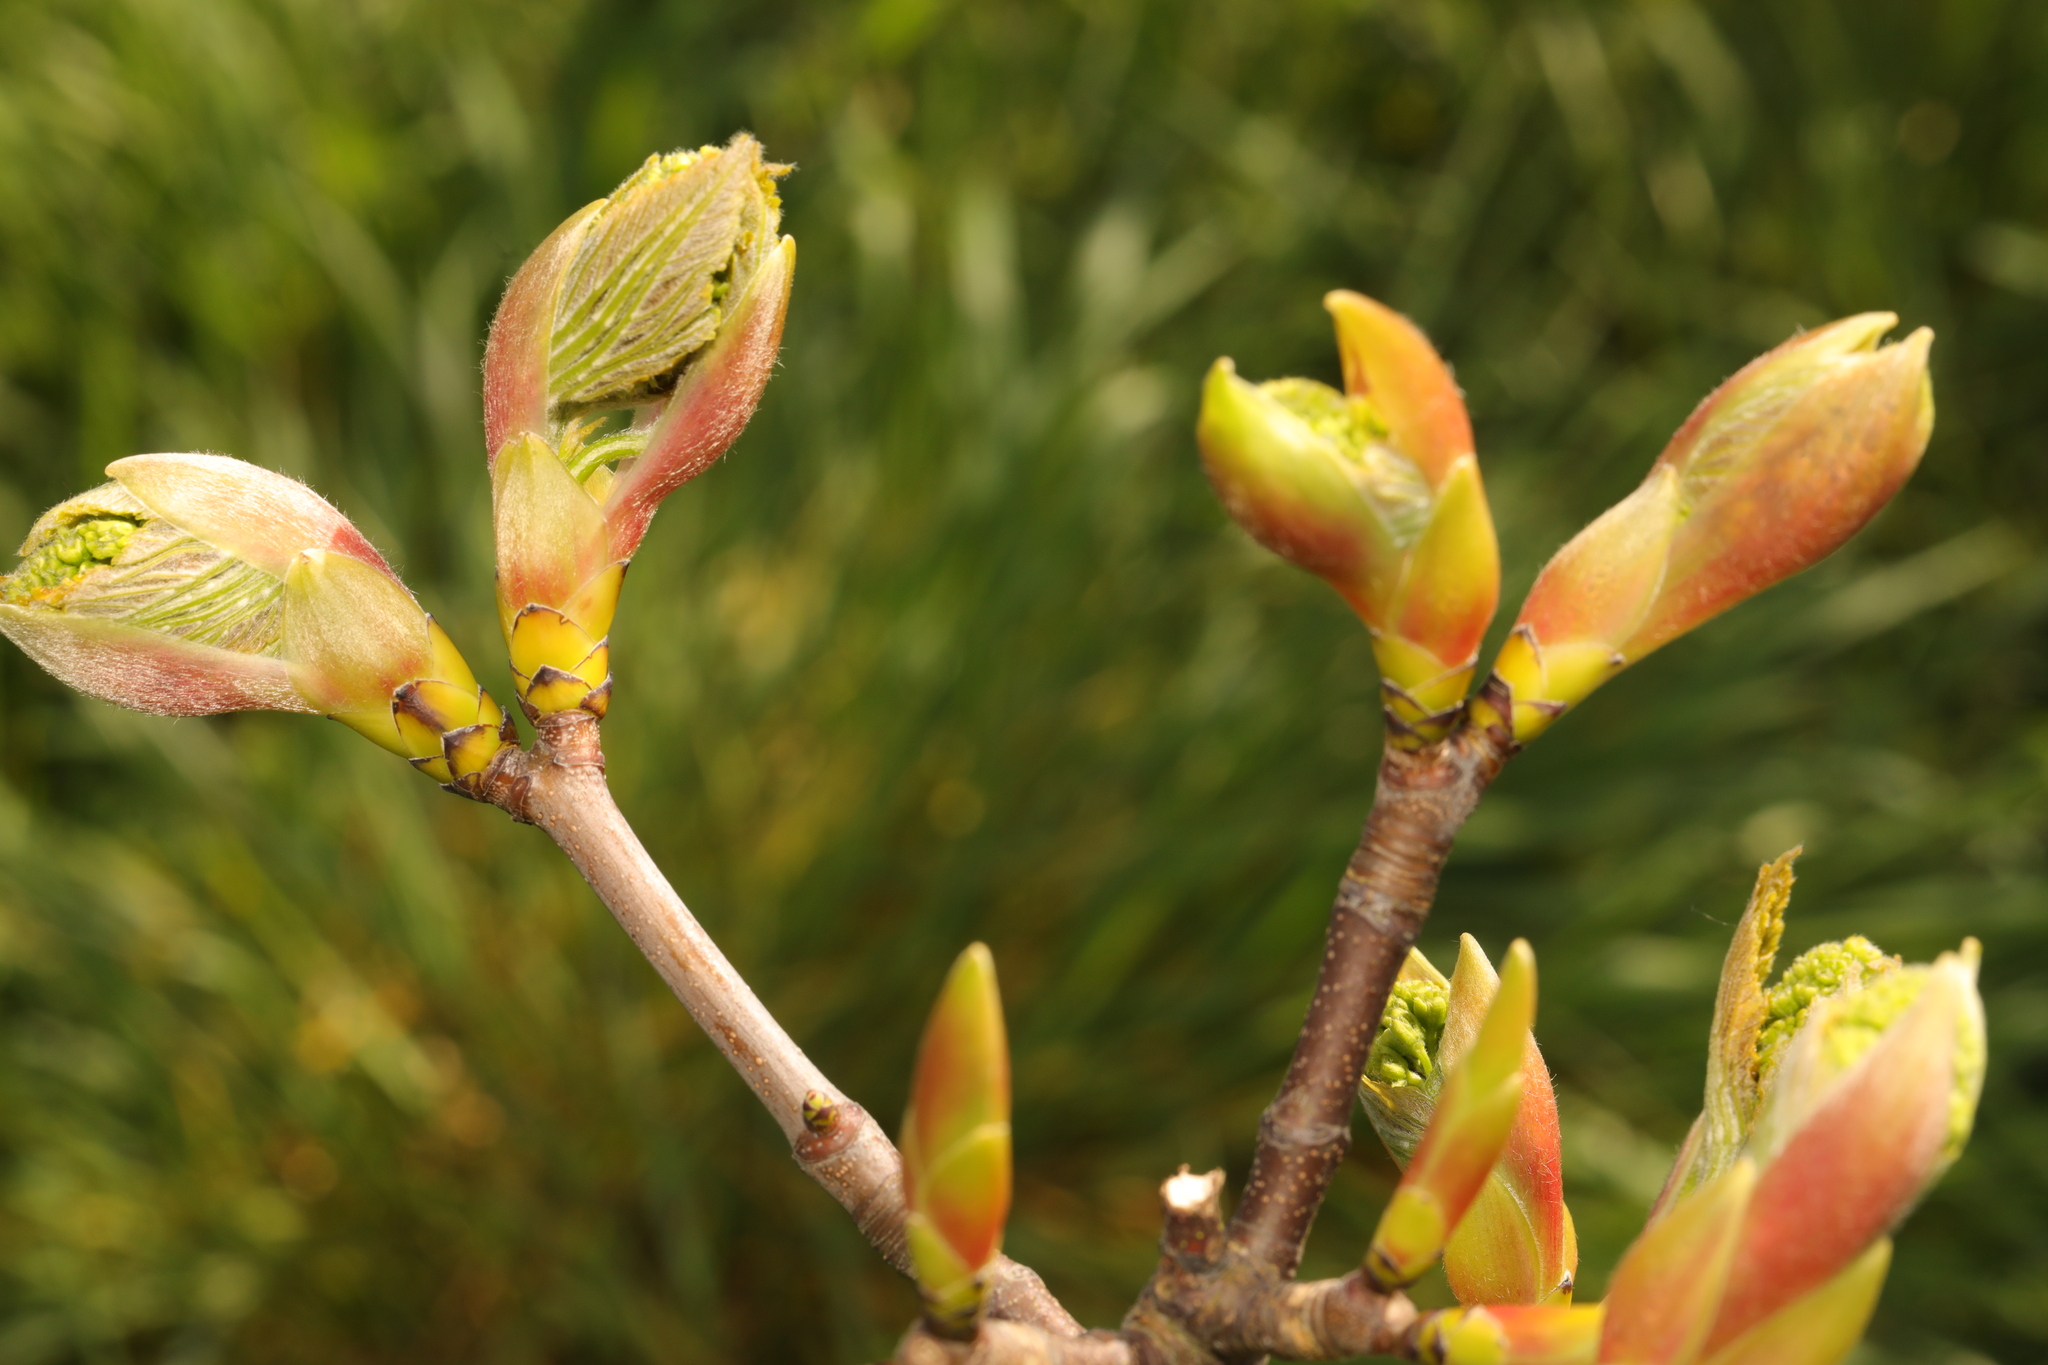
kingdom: Plantae
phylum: Tracheophyta
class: Magnoliopsida
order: Sapindales
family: Sapindaceae
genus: Acer
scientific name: Acer pseudoplatanus
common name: Sycamore
